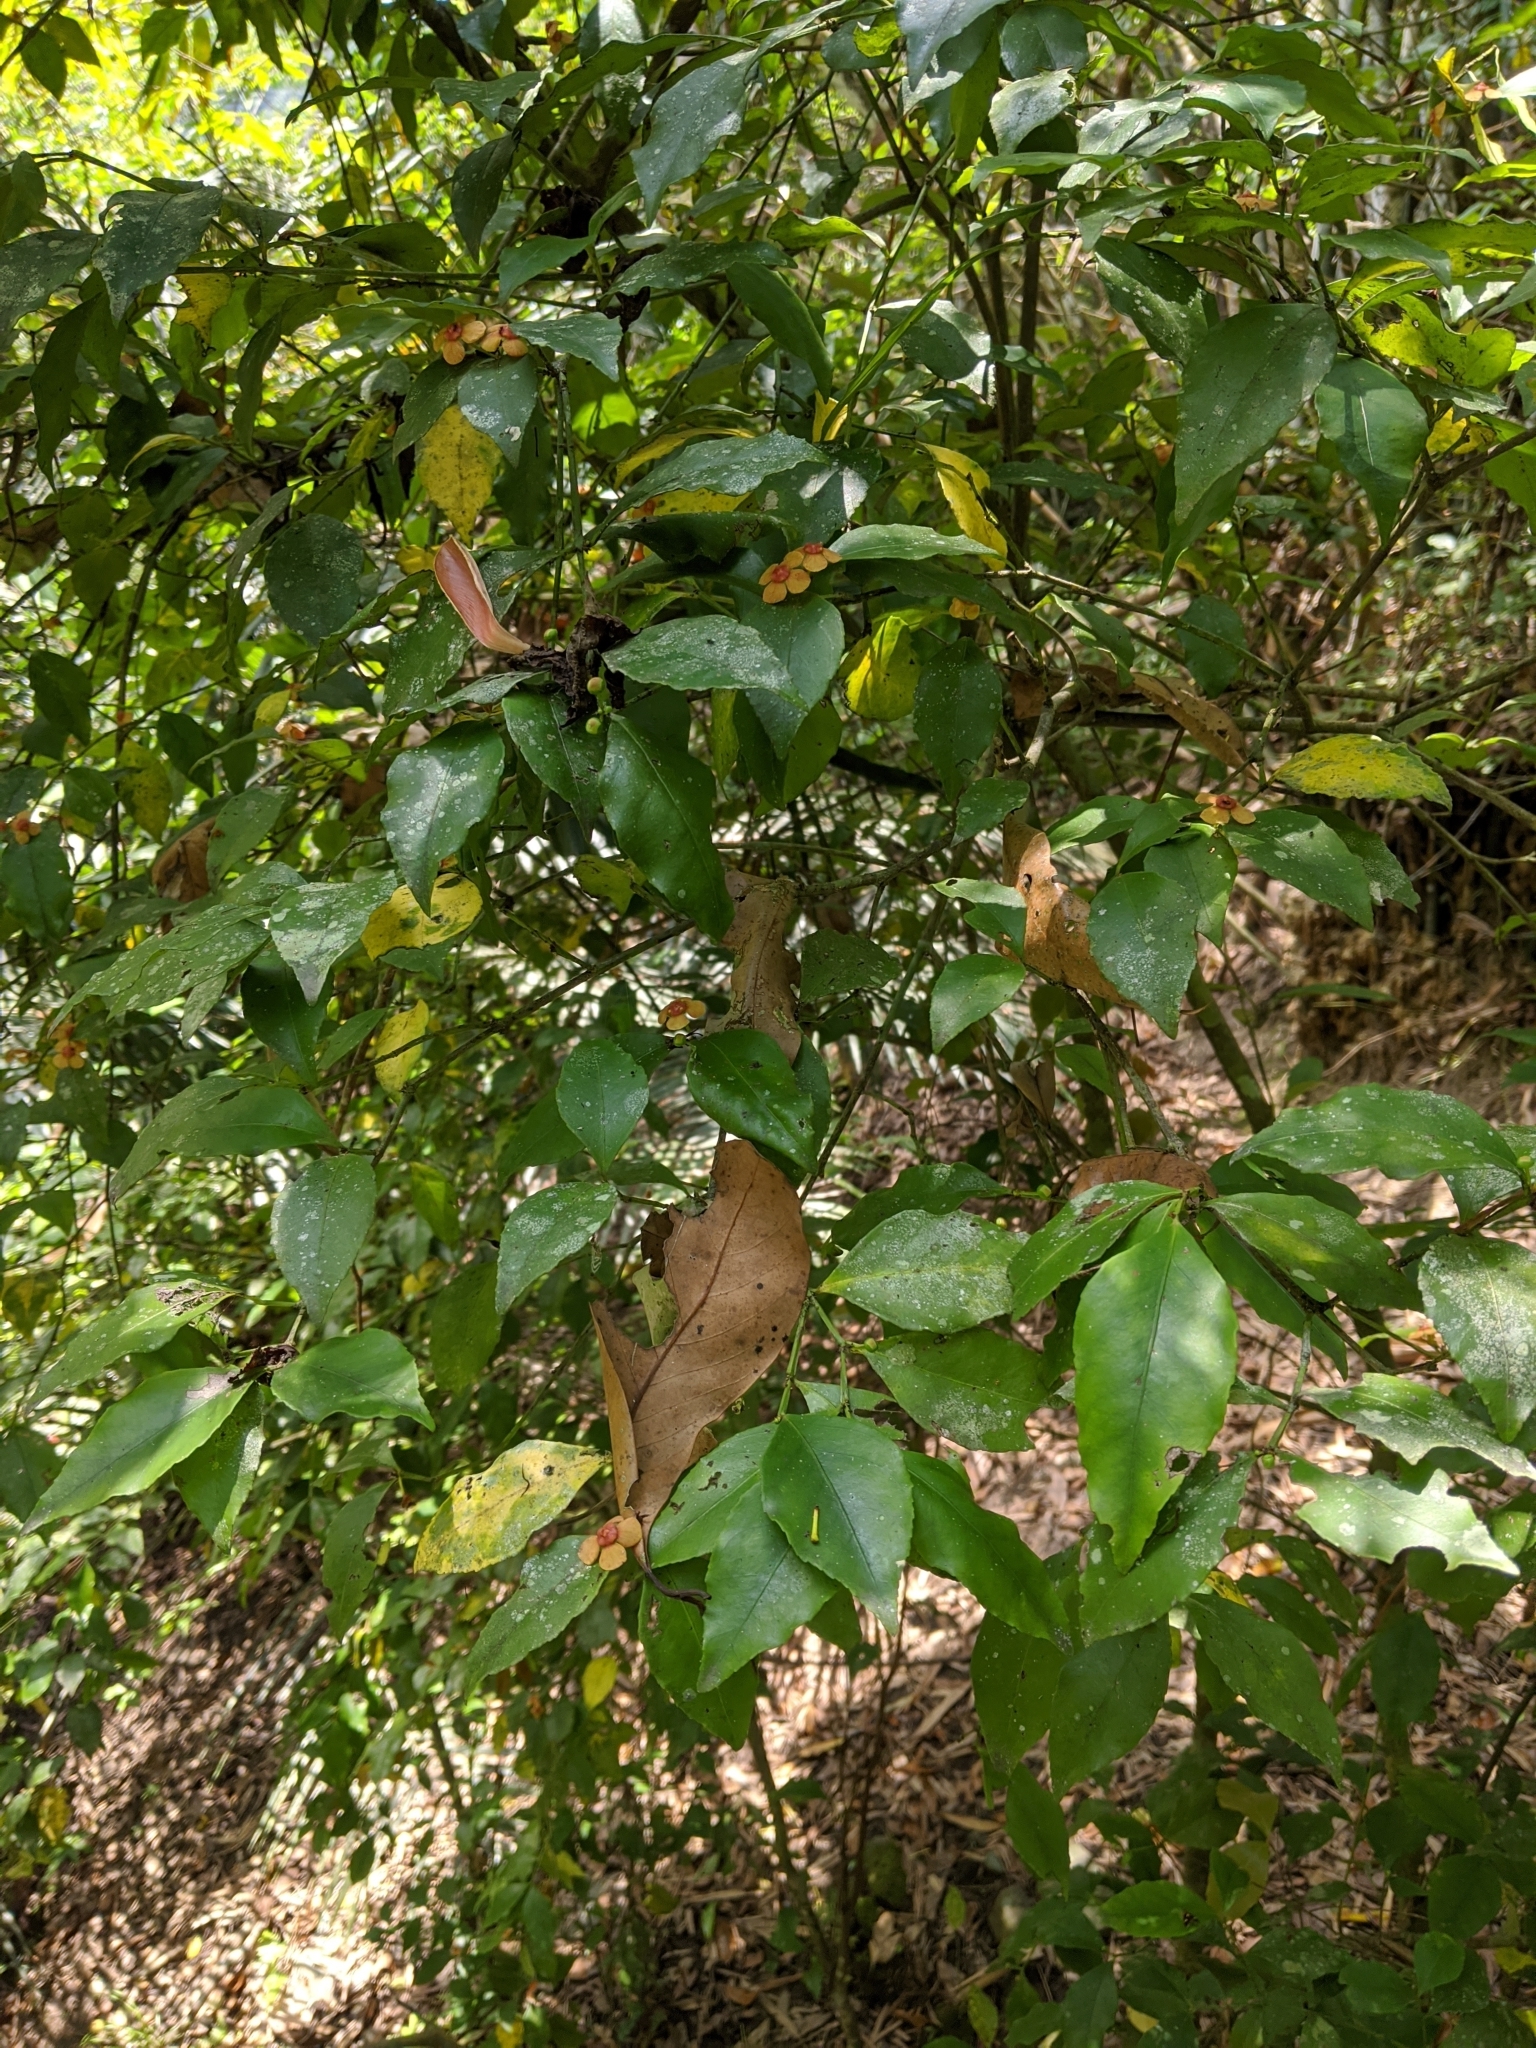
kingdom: Plantae
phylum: Tracheophyta
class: Magnoliopsida
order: Celastrales
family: Celastraceae
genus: Euonymus
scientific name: Euonymus laxiflorus
